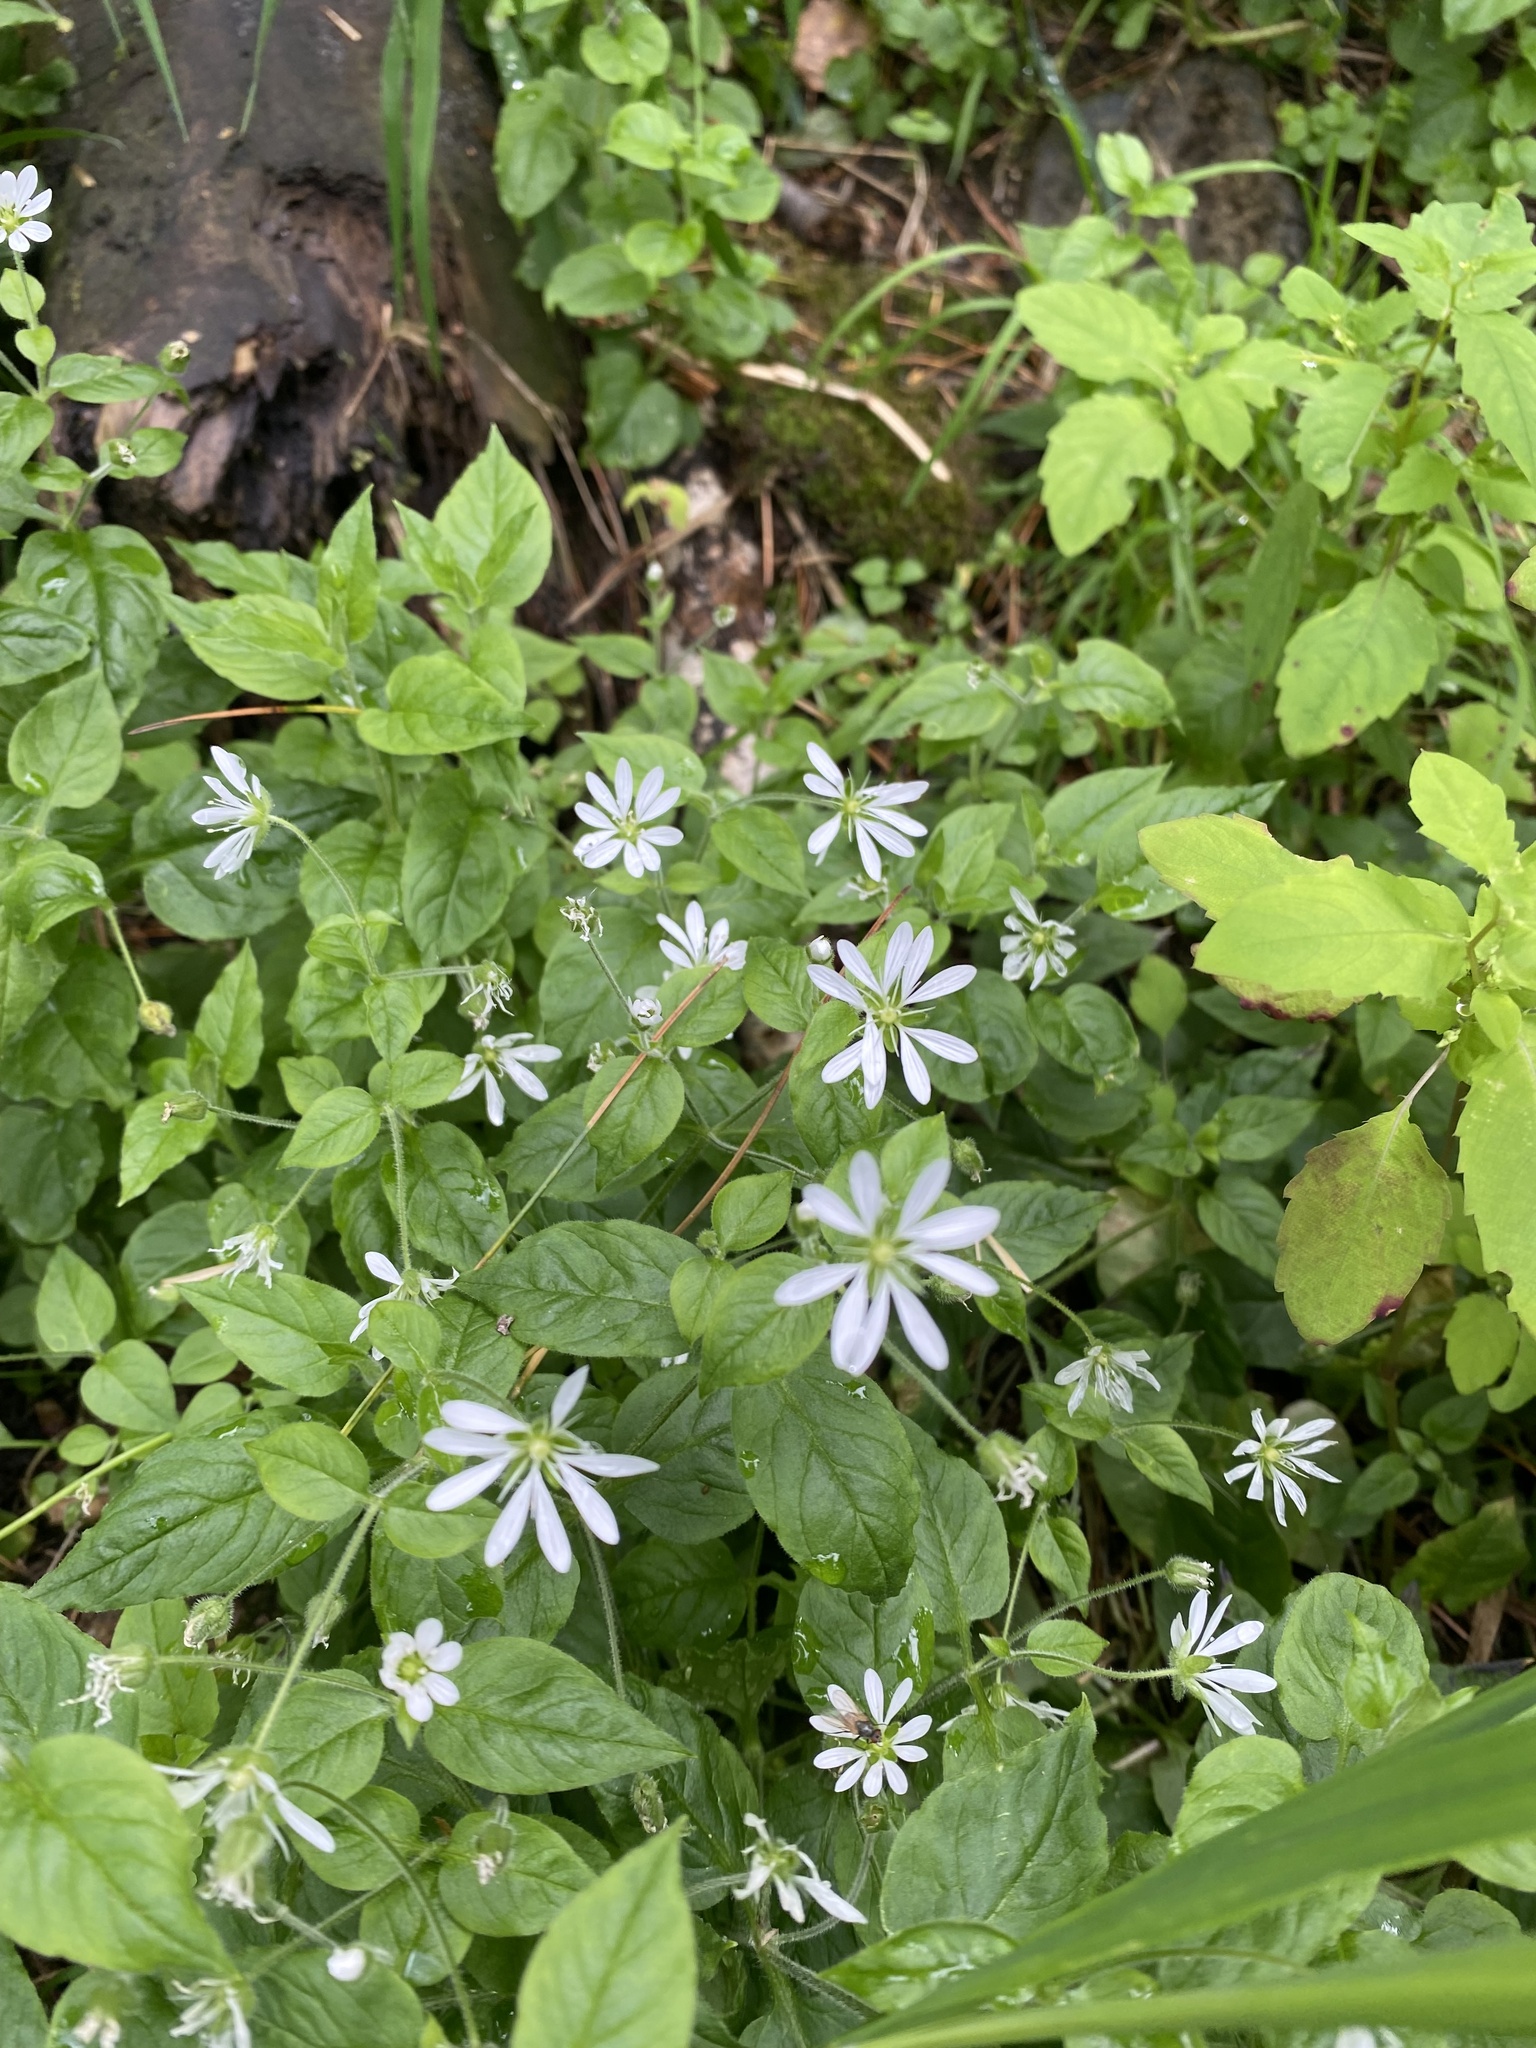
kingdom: Plantae
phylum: Tracheophyta
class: Magnoliopsida
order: Caryophyllales
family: Caryophyllaceae
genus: Stellaria
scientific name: Stellaria bungeana
